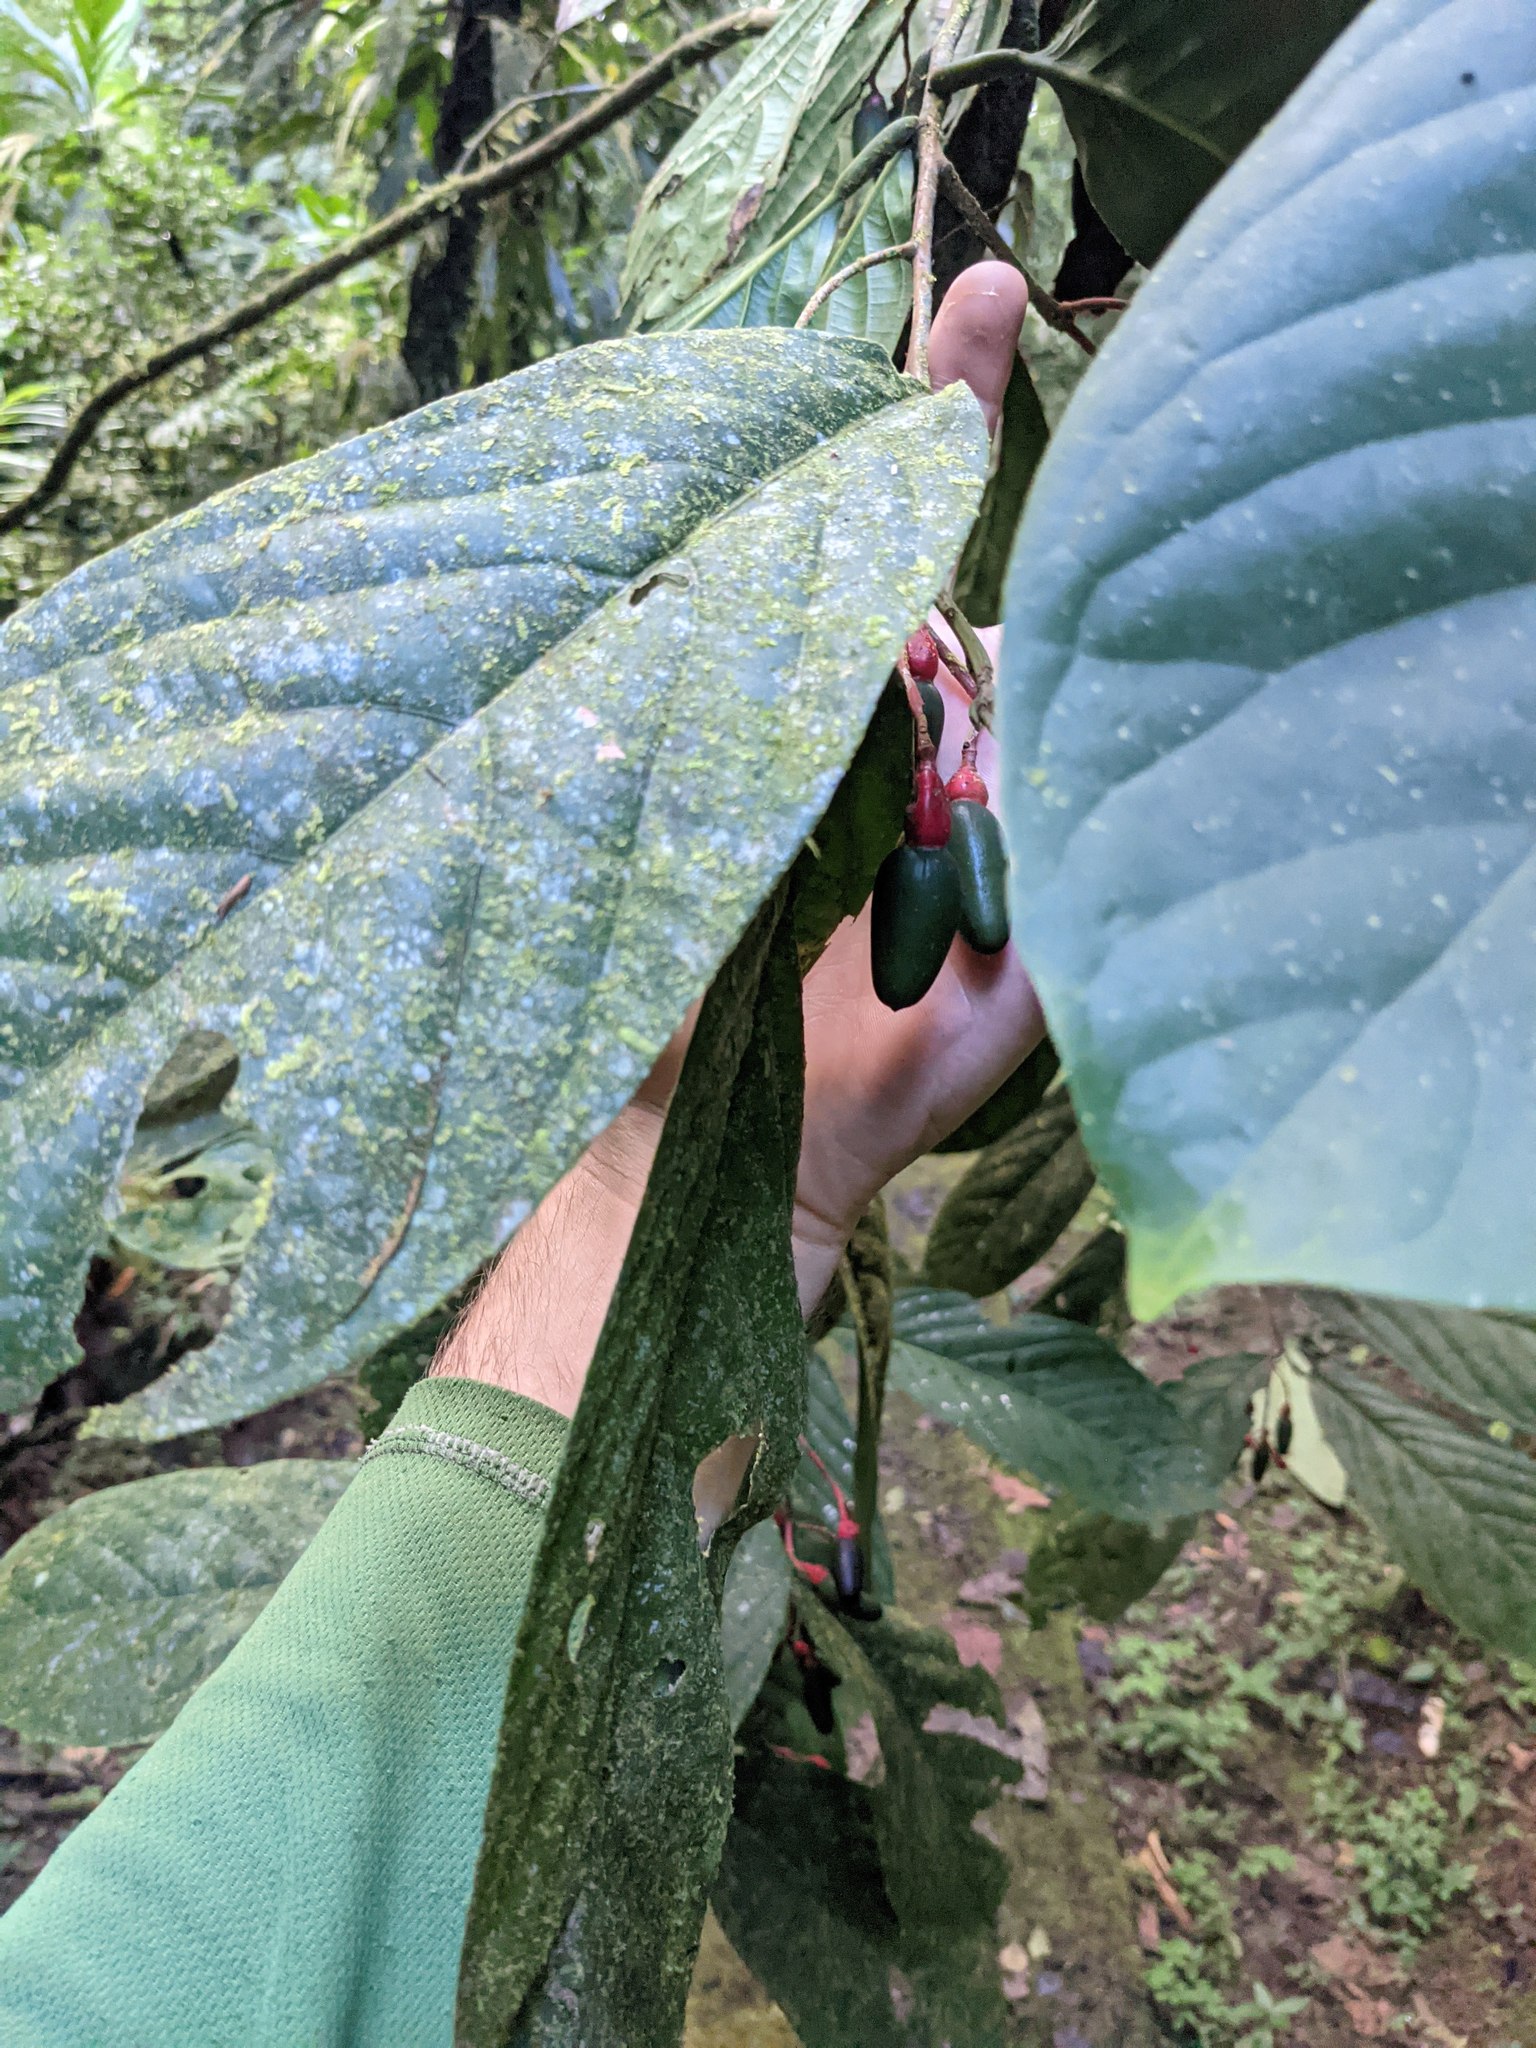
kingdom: Plantae
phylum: Tracheophyta
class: Magnoliopsida
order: Laurales
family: Lauraceae
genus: Ocotea
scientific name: Ocotea atirrensis
